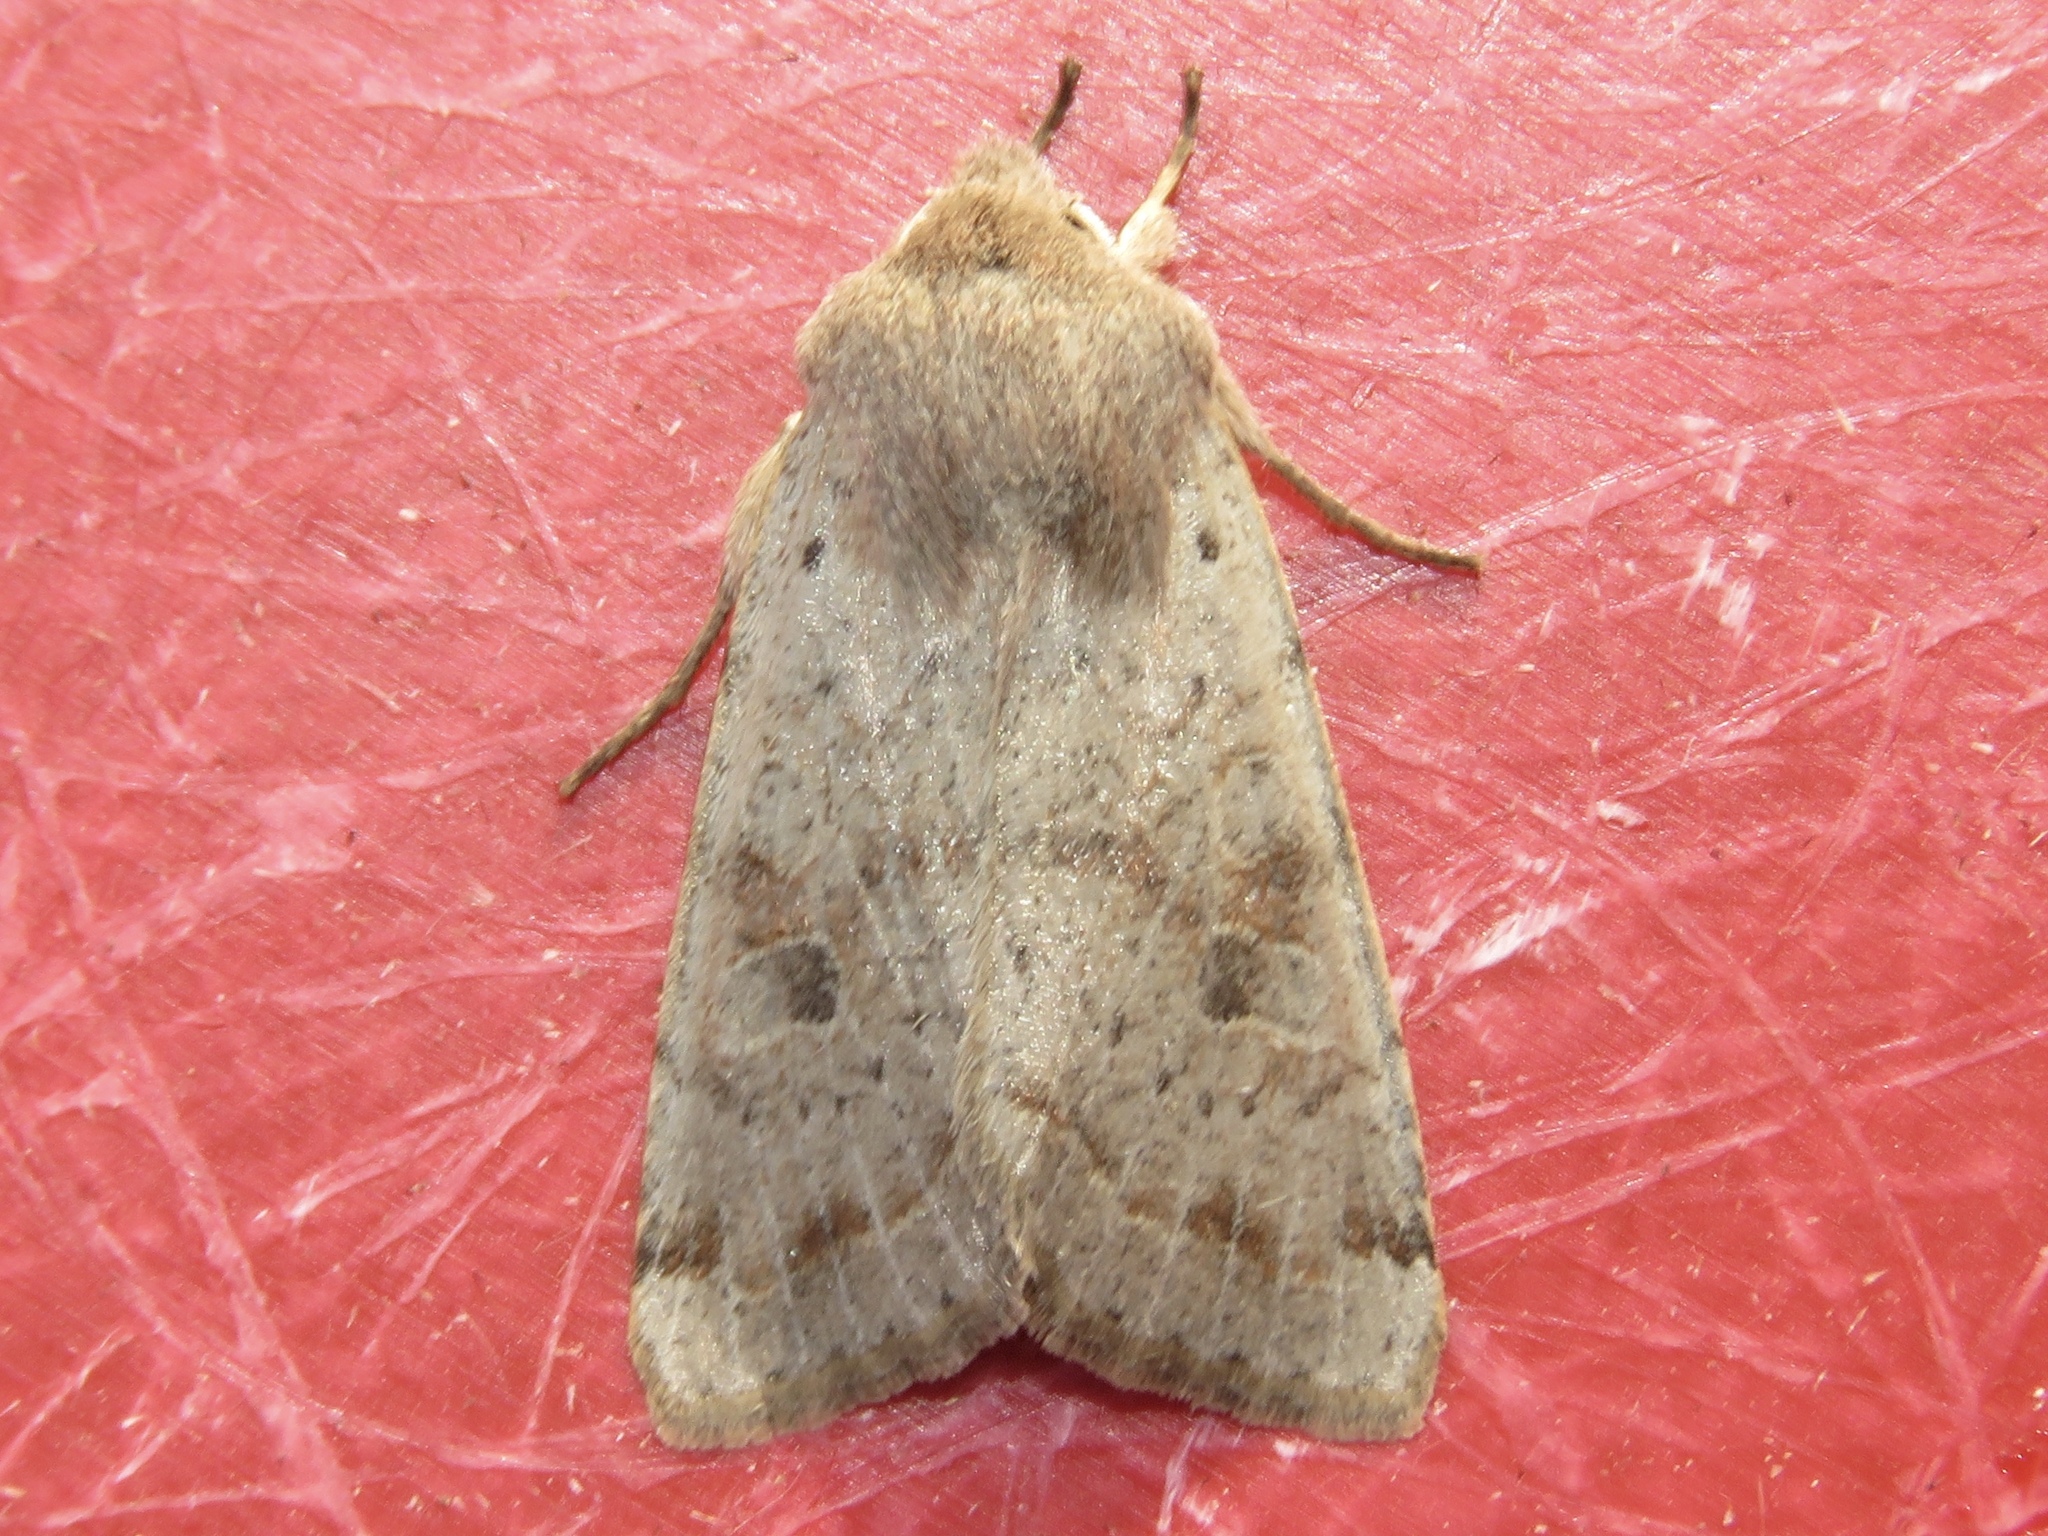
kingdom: Animalia
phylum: Arthropoda
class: Insecta
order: Lepidoptera
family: Noctuidae
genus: Orthosia
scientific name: Orthosia hibisci
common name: Green fruitworm
